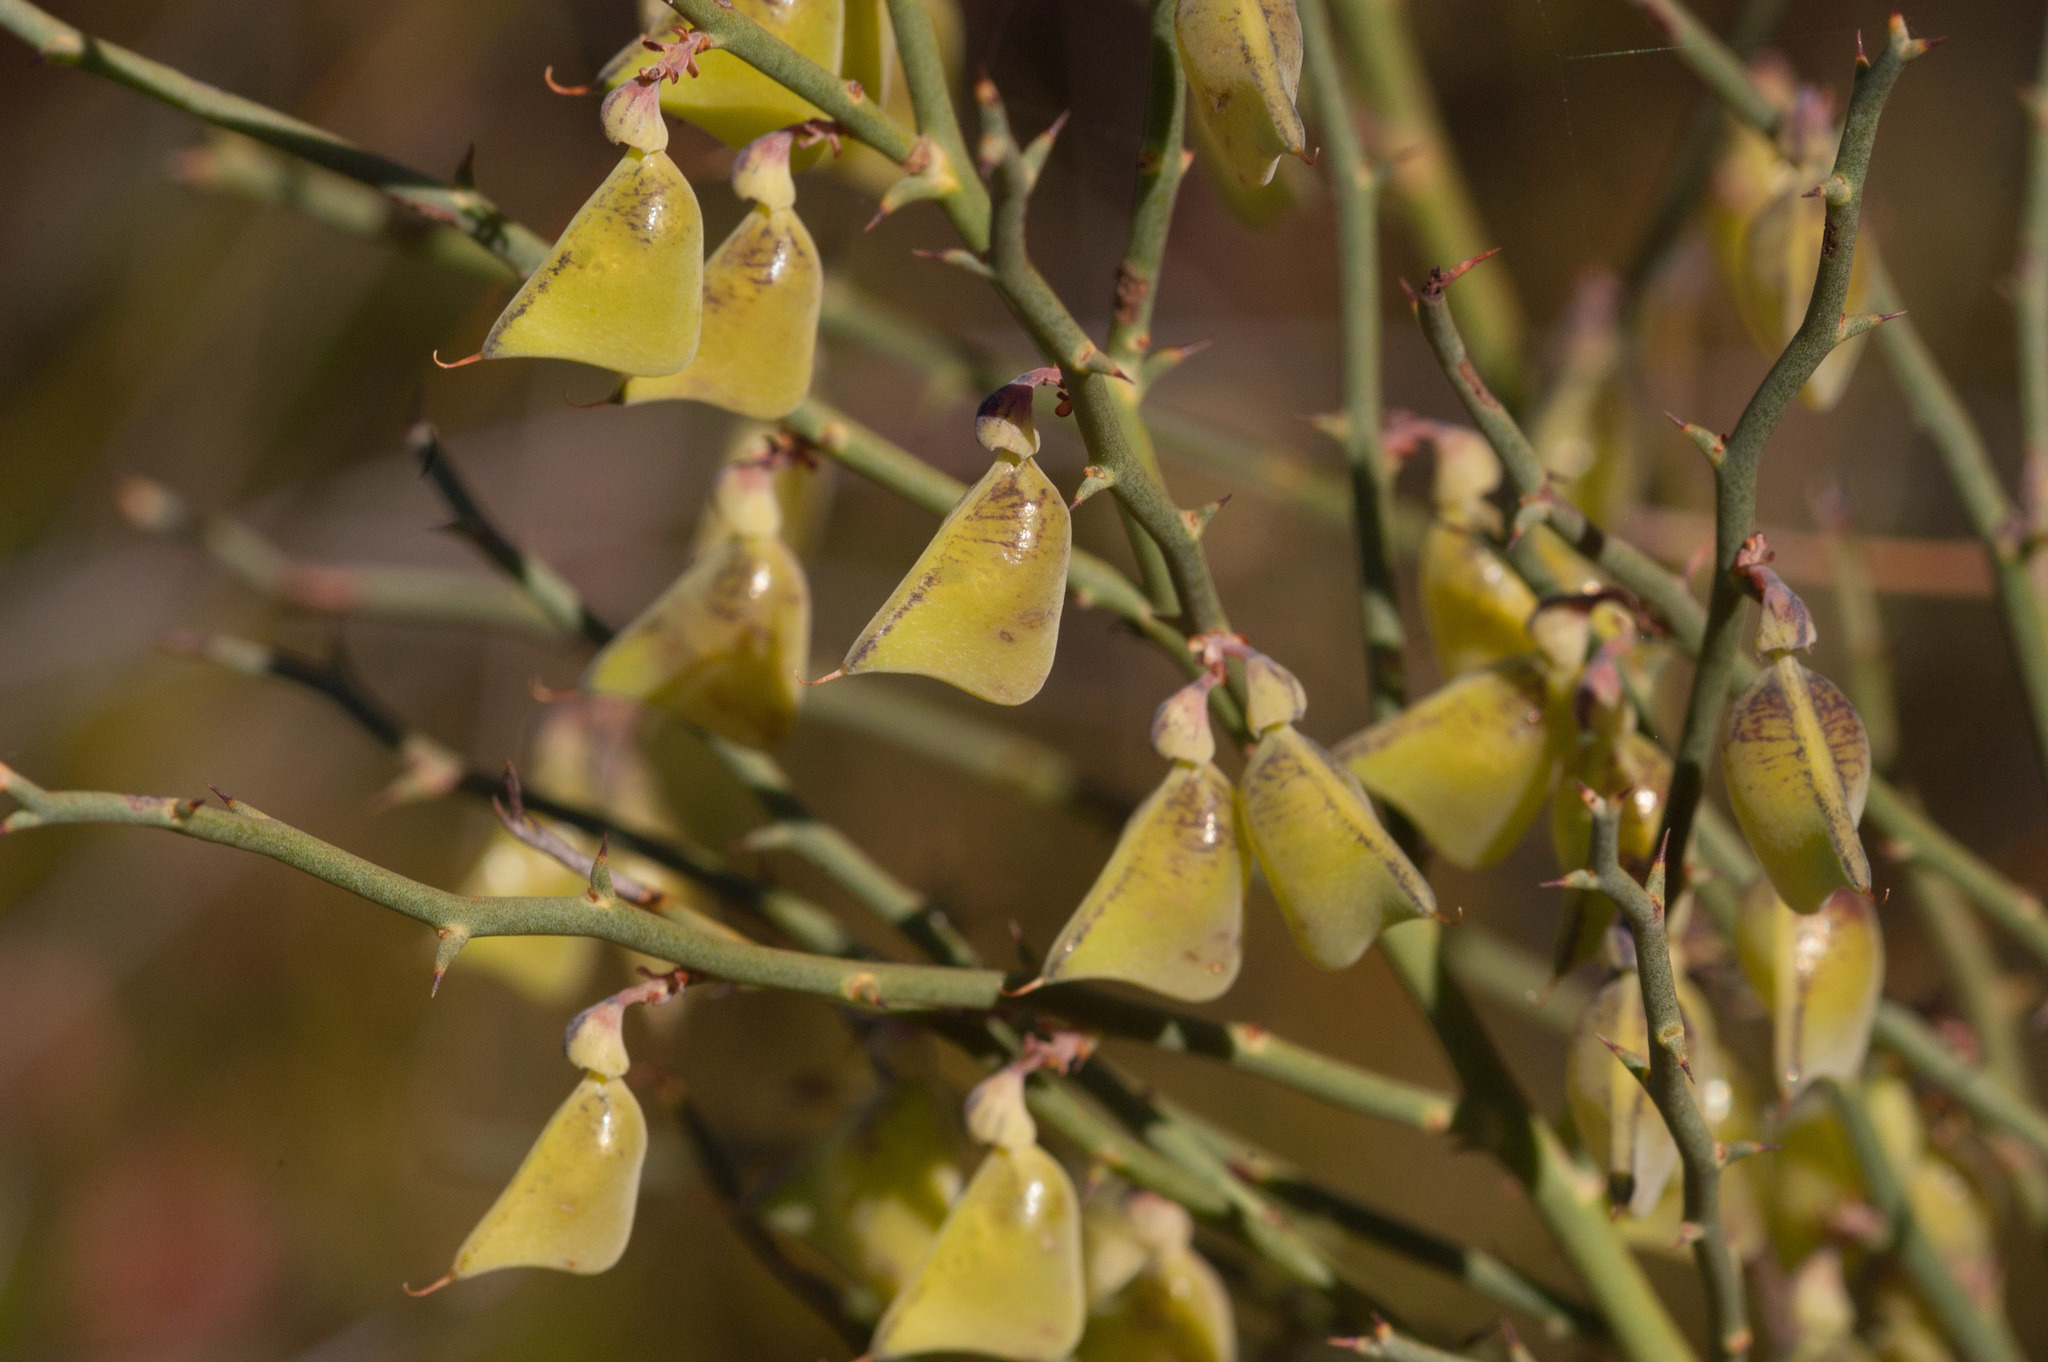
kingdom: Plantae
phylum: Tracheophyta
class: Magnoliopsida
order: Fabales
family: Fabaceae
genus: Daviesia
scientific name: Daviesia brevifolia
